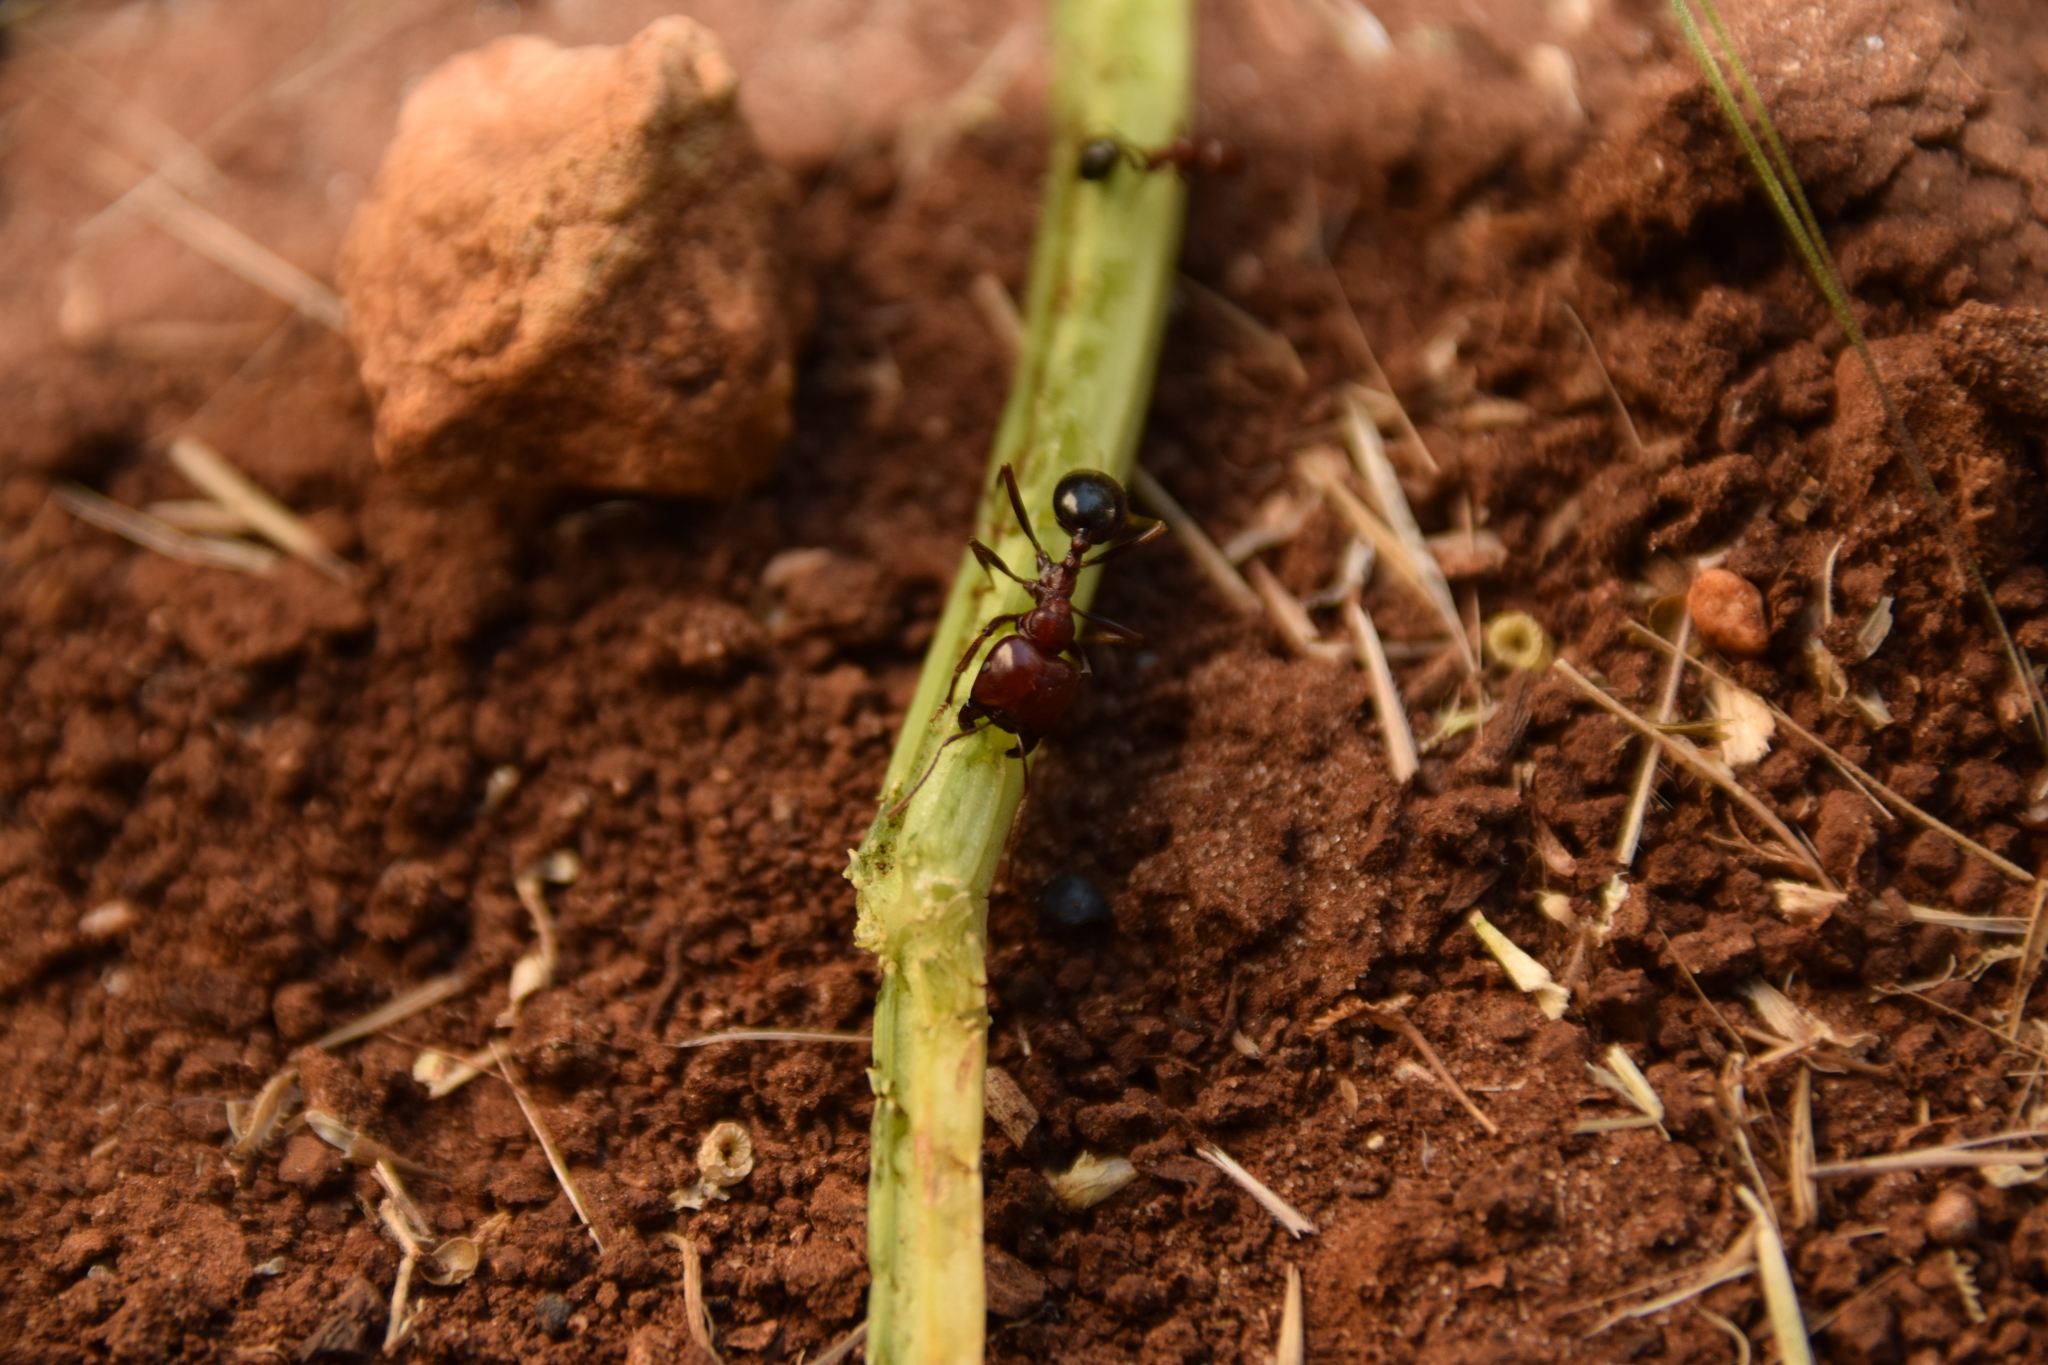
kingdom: Animalia
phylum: Arthropoda
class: Insecta
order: Hymenoptera
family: Formicidae
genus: Messor
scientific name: Messor hebraeus
